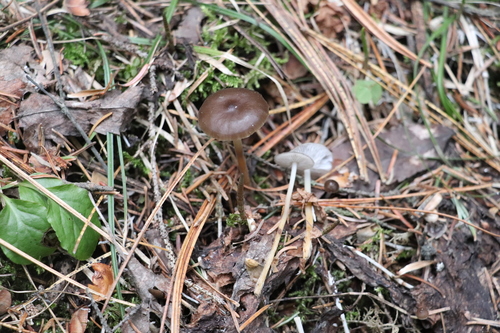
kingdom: Fungi
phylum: Basidiomycota
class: Agaricomycetes
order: Agaricales
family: Physalacriaceae
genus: Strobilurus
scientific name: Strobilurus esculentus
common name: Sprucecone cap
